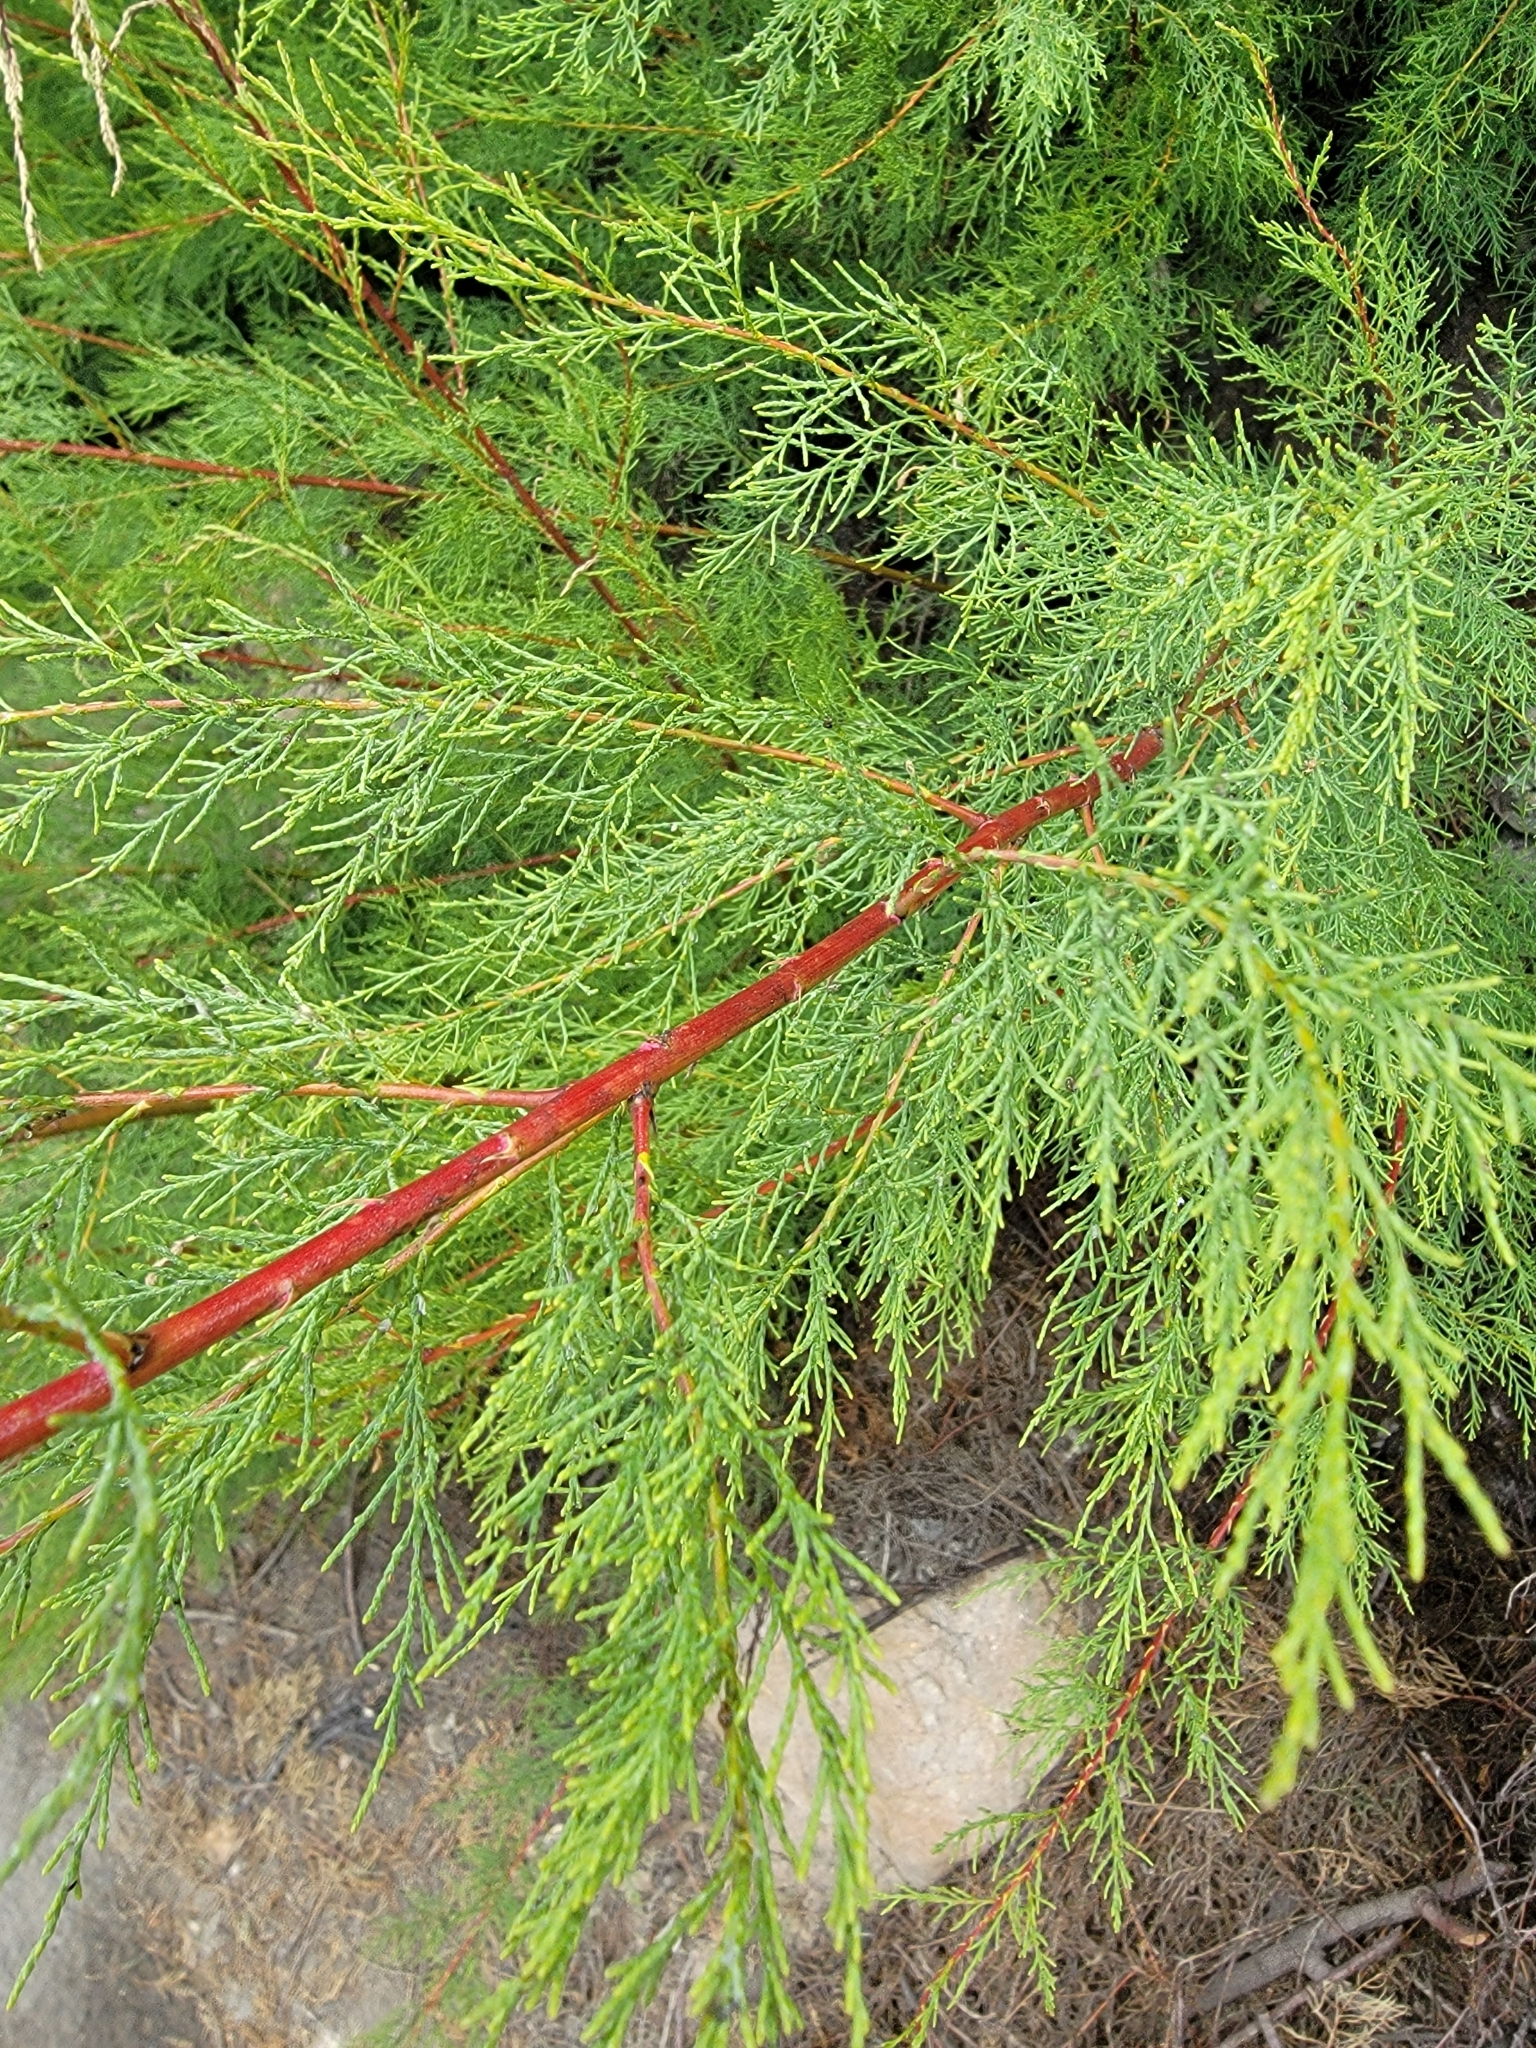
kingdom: Plantae
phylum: Tracheophyta
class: Magnoliopsida
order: Caryophyllales
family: Tamaricaceae
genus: Tamarix
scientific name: Tamarix
